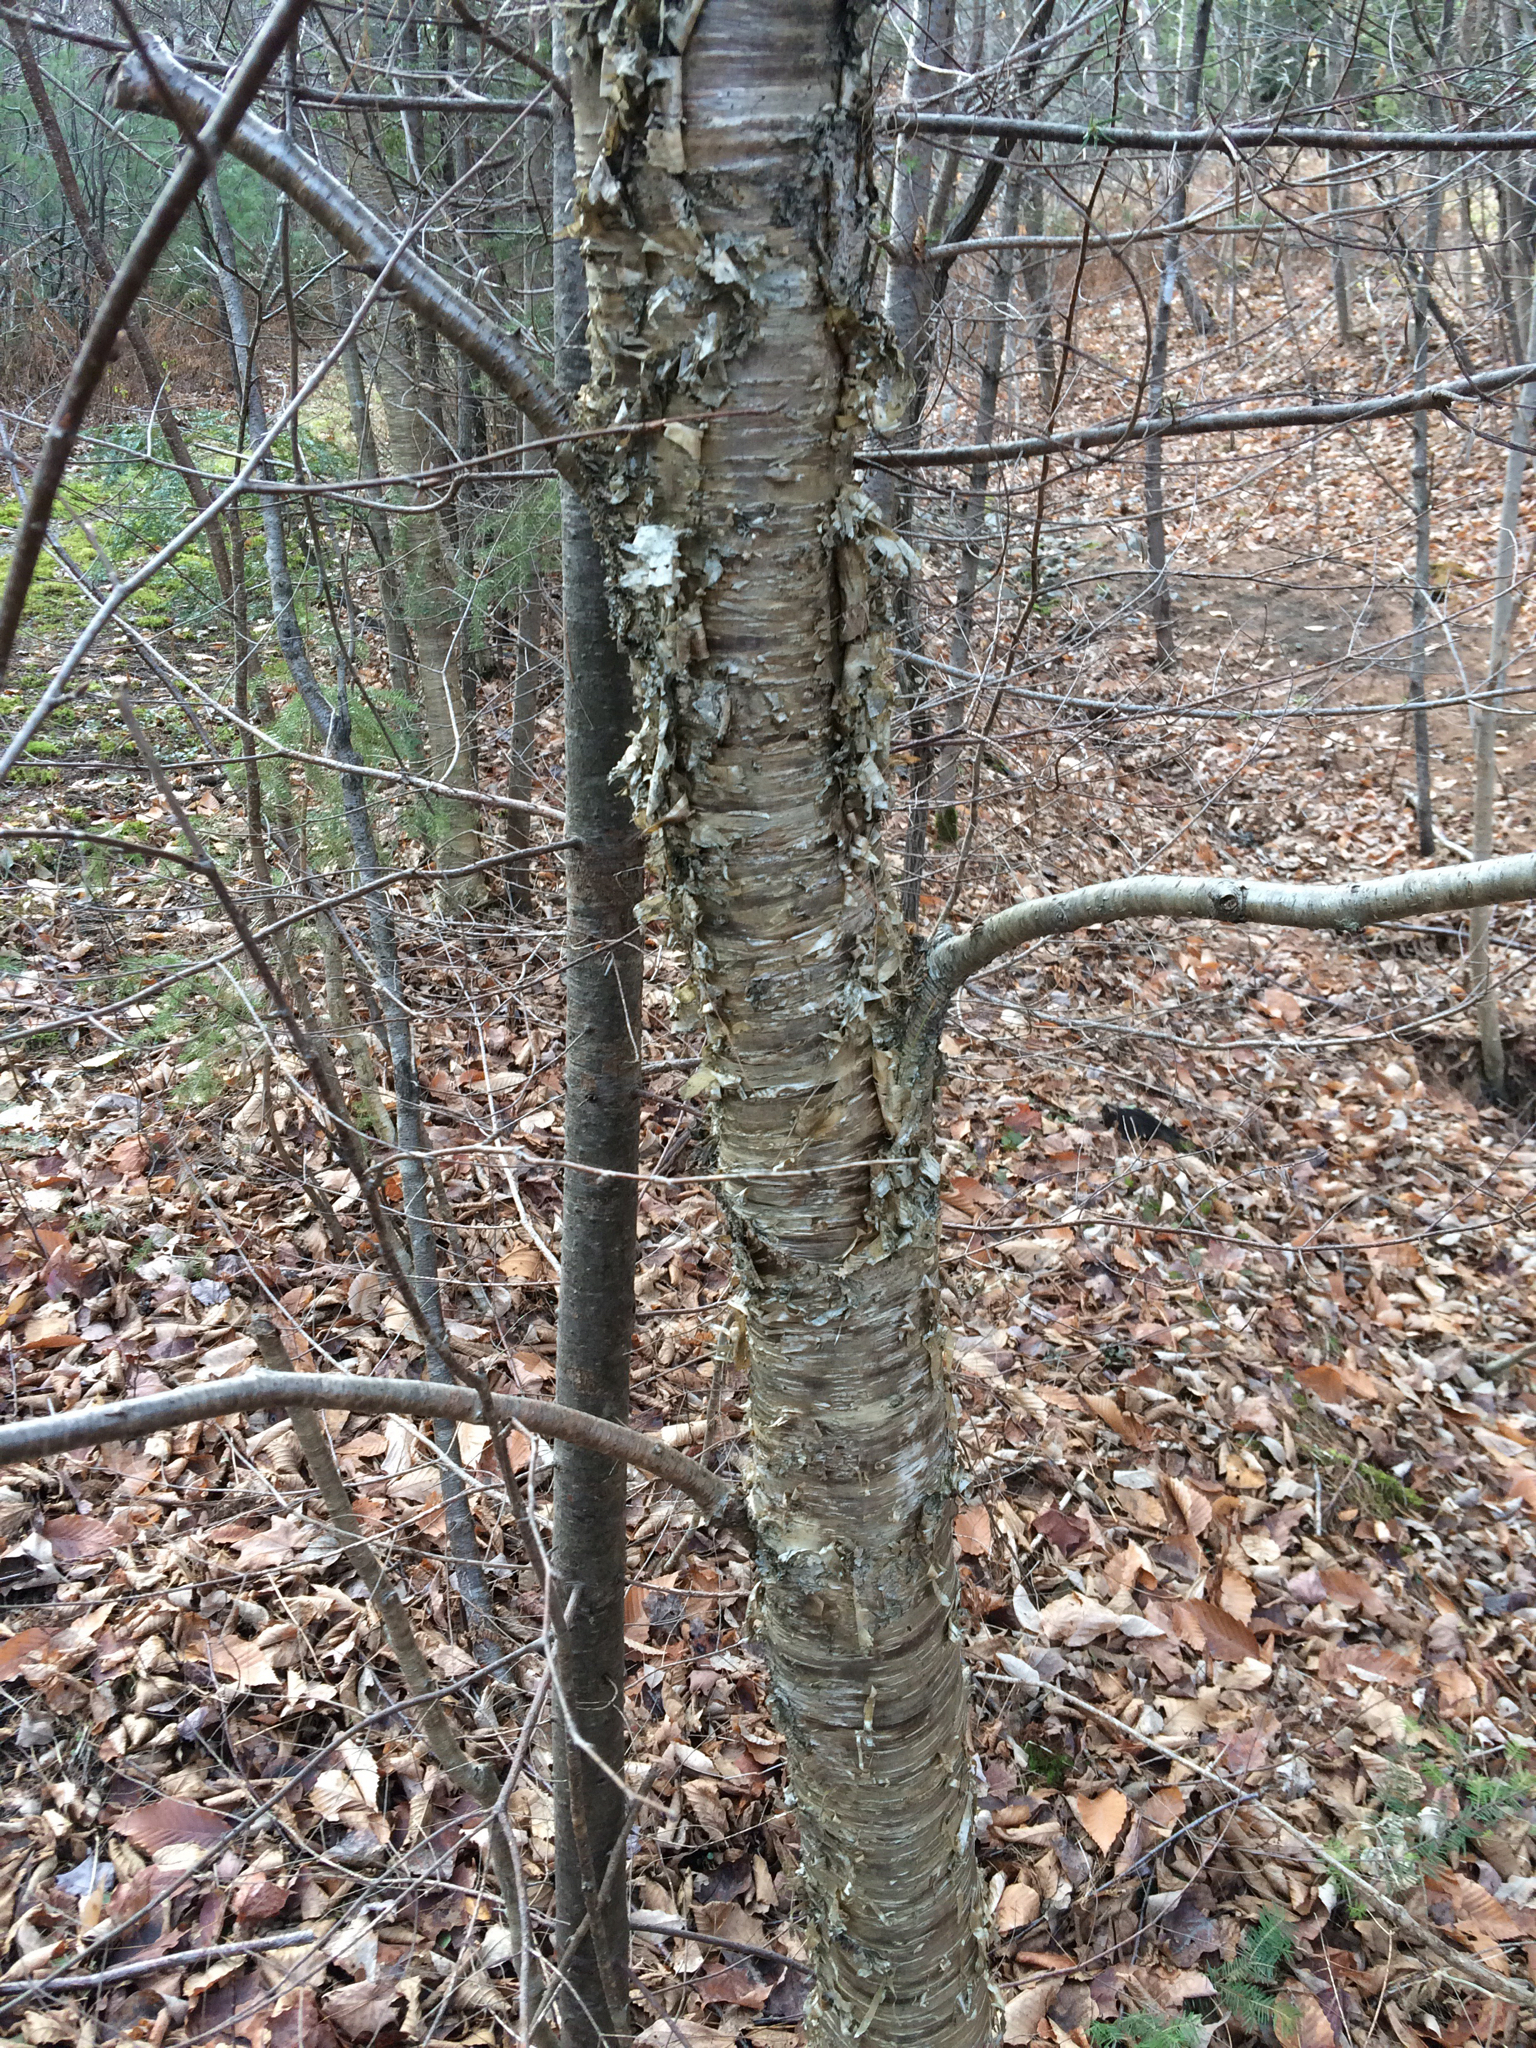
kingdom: Plantae
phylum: Tracheophyta
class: Magnoliopsida
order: Fagales
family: Betulaceae
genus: Betula
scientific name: Betula alleghaniensis
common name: Yellow birch
